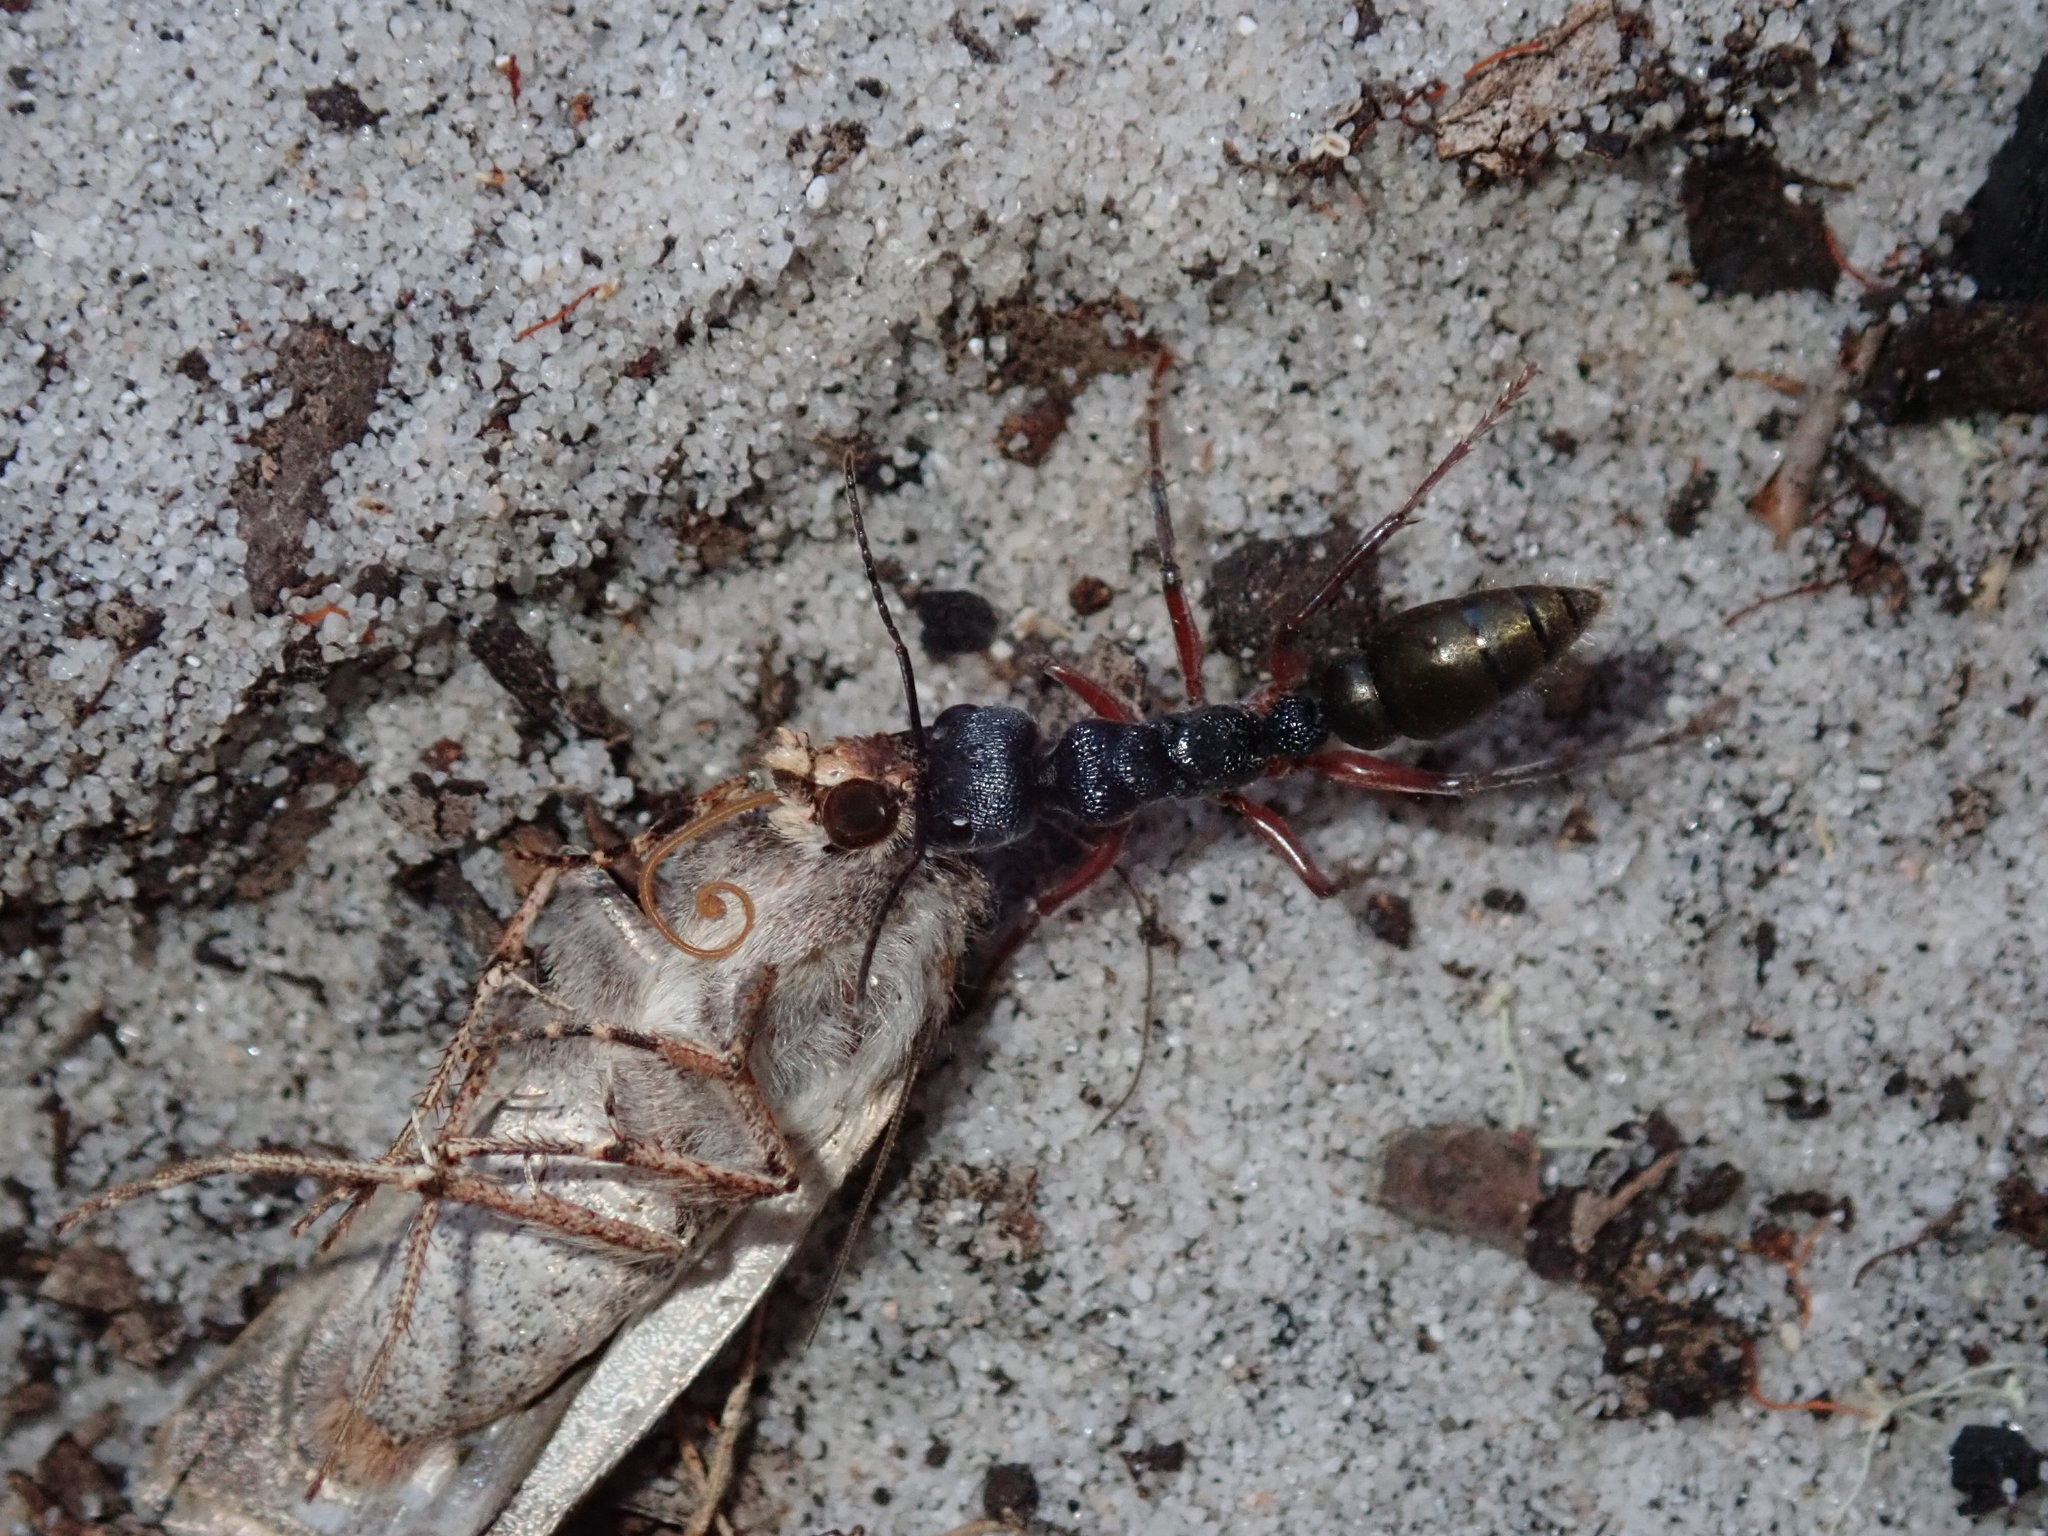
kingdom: Animalia
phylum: Arthropoda
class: Insecta
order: Hymenoptera
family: Formicidae
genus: Myrmecia
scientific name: Myrmecia fulvipes
